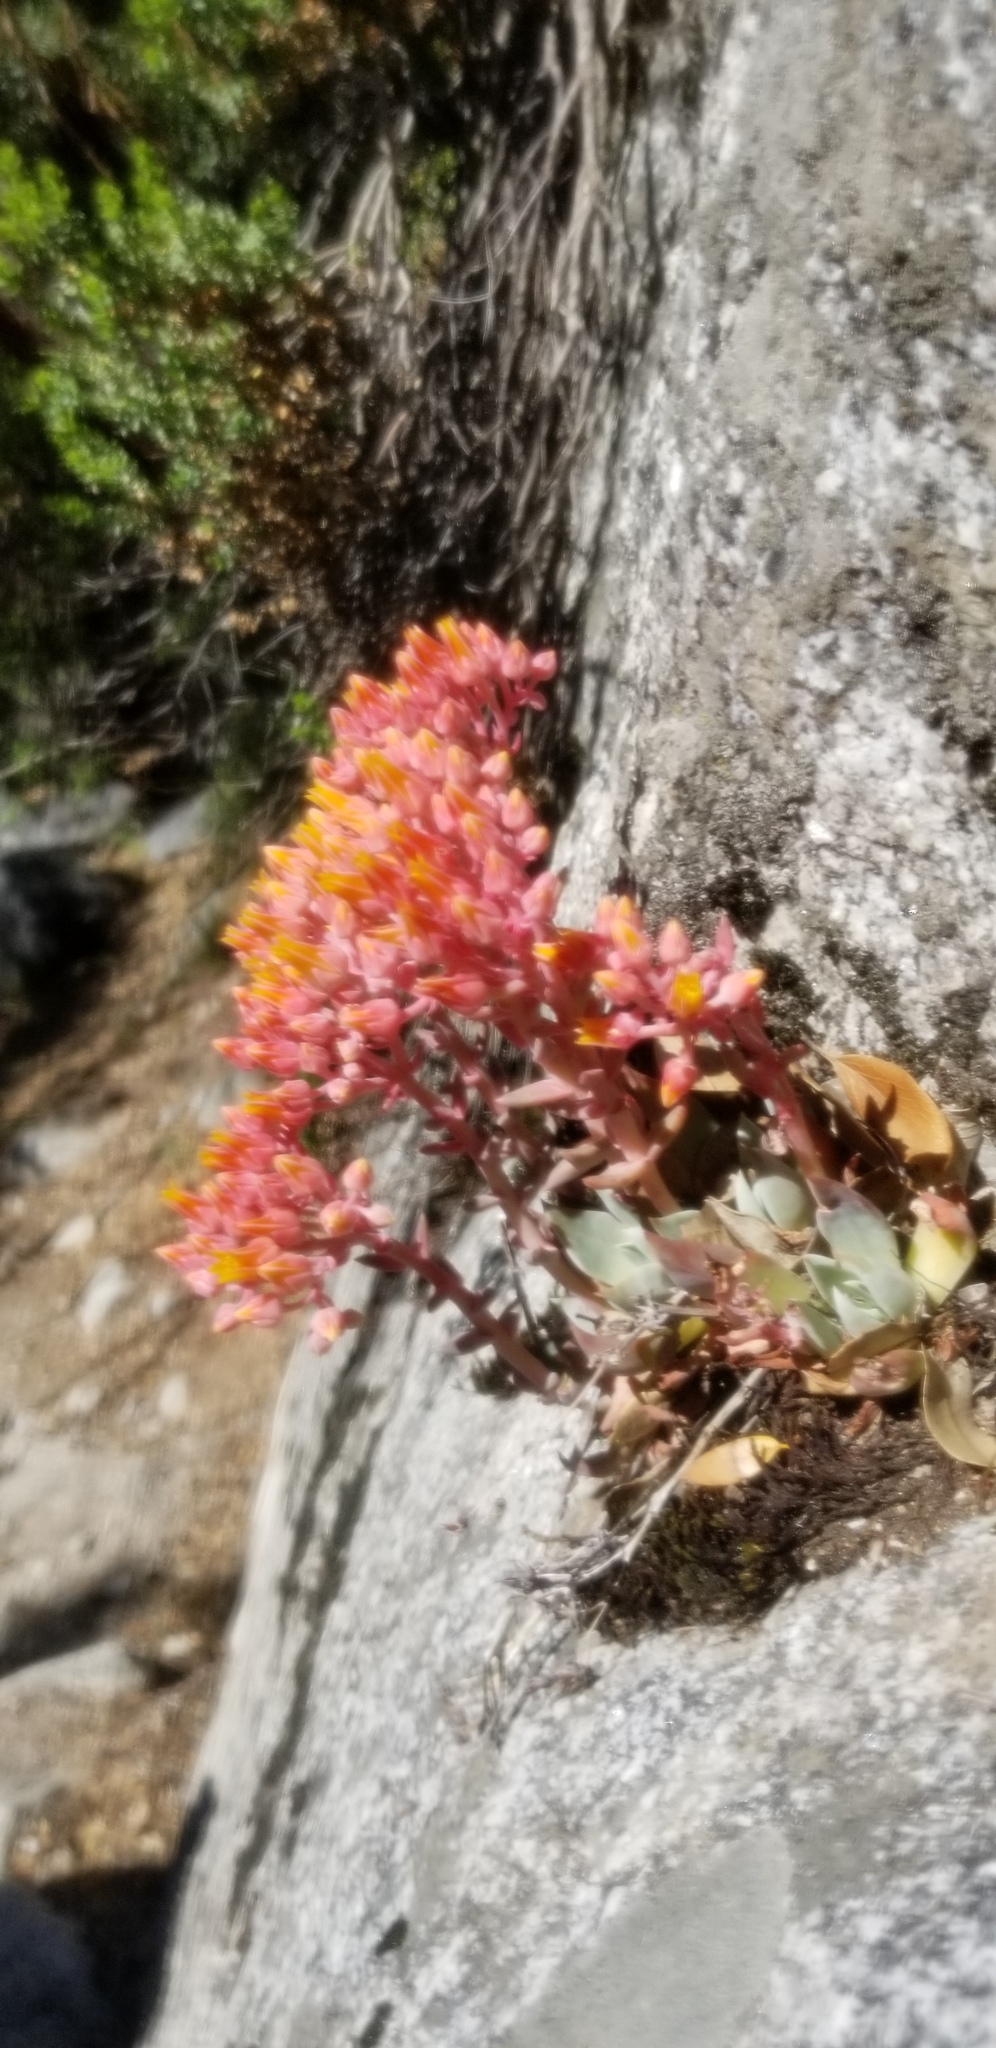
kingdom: Plantae
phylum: Tracheophyta
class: Magnoliopsida
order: Saxifragales
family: Crassulaceae
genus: Dudleya
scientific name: Dudleya cymosa
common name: Canyon dudleya
